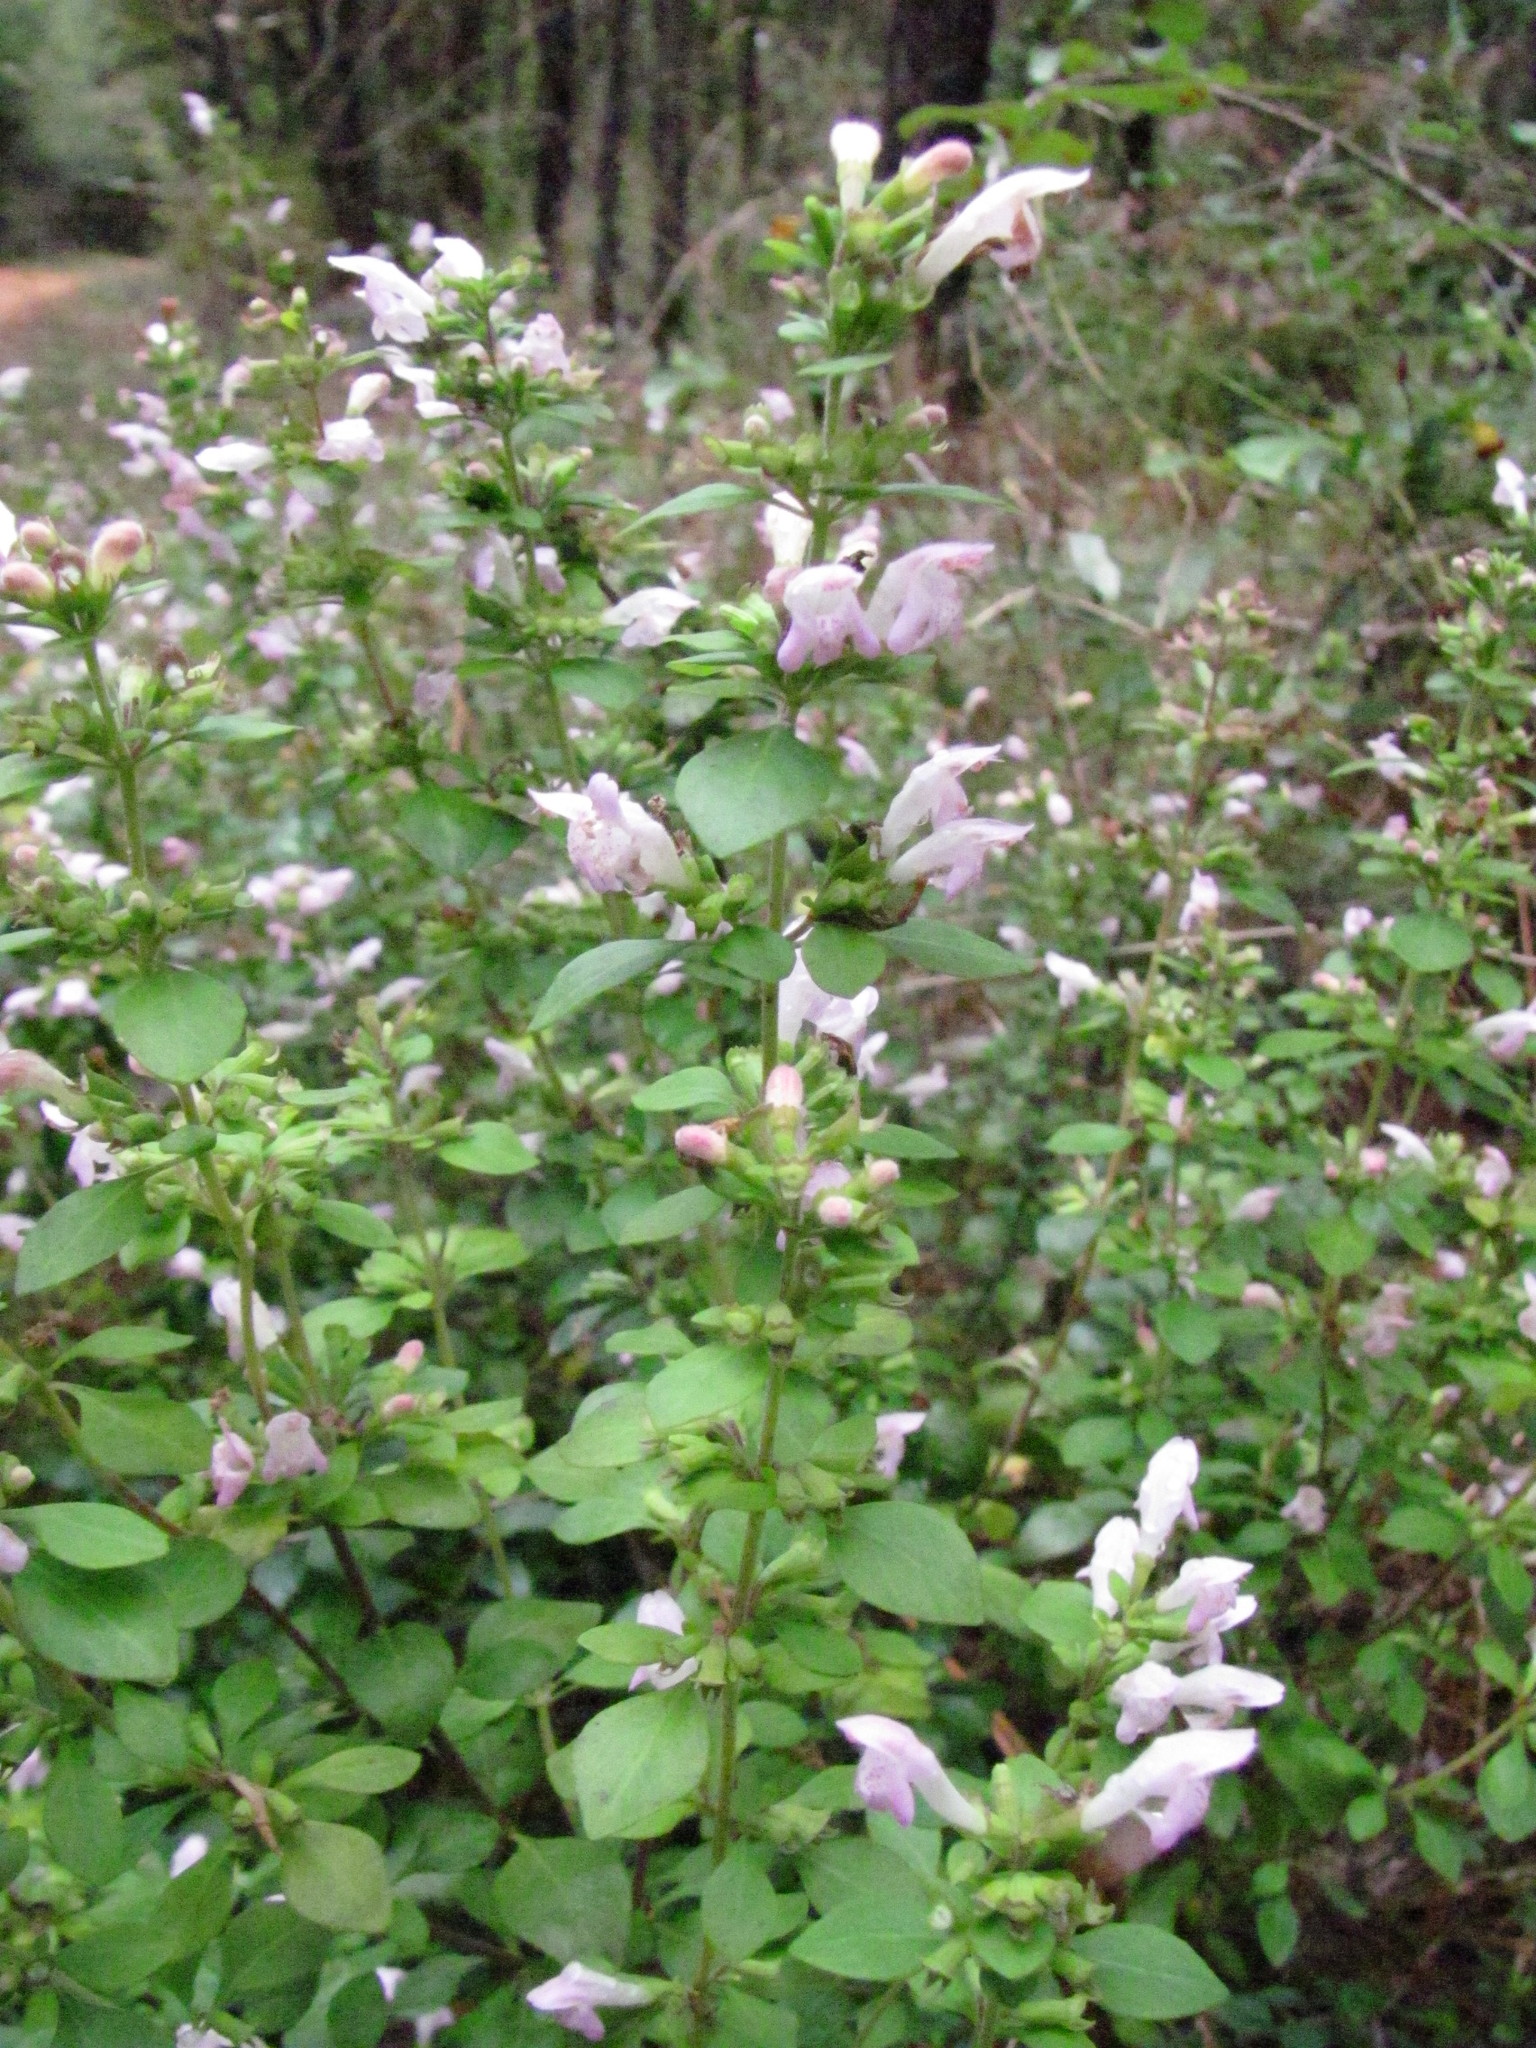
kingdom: Plantae
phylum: Tracheophyta
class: Magnoliopsida
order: Lamiales
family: Lamiaceae
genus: Clinopodium
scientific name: Clinopodium carolinianum
